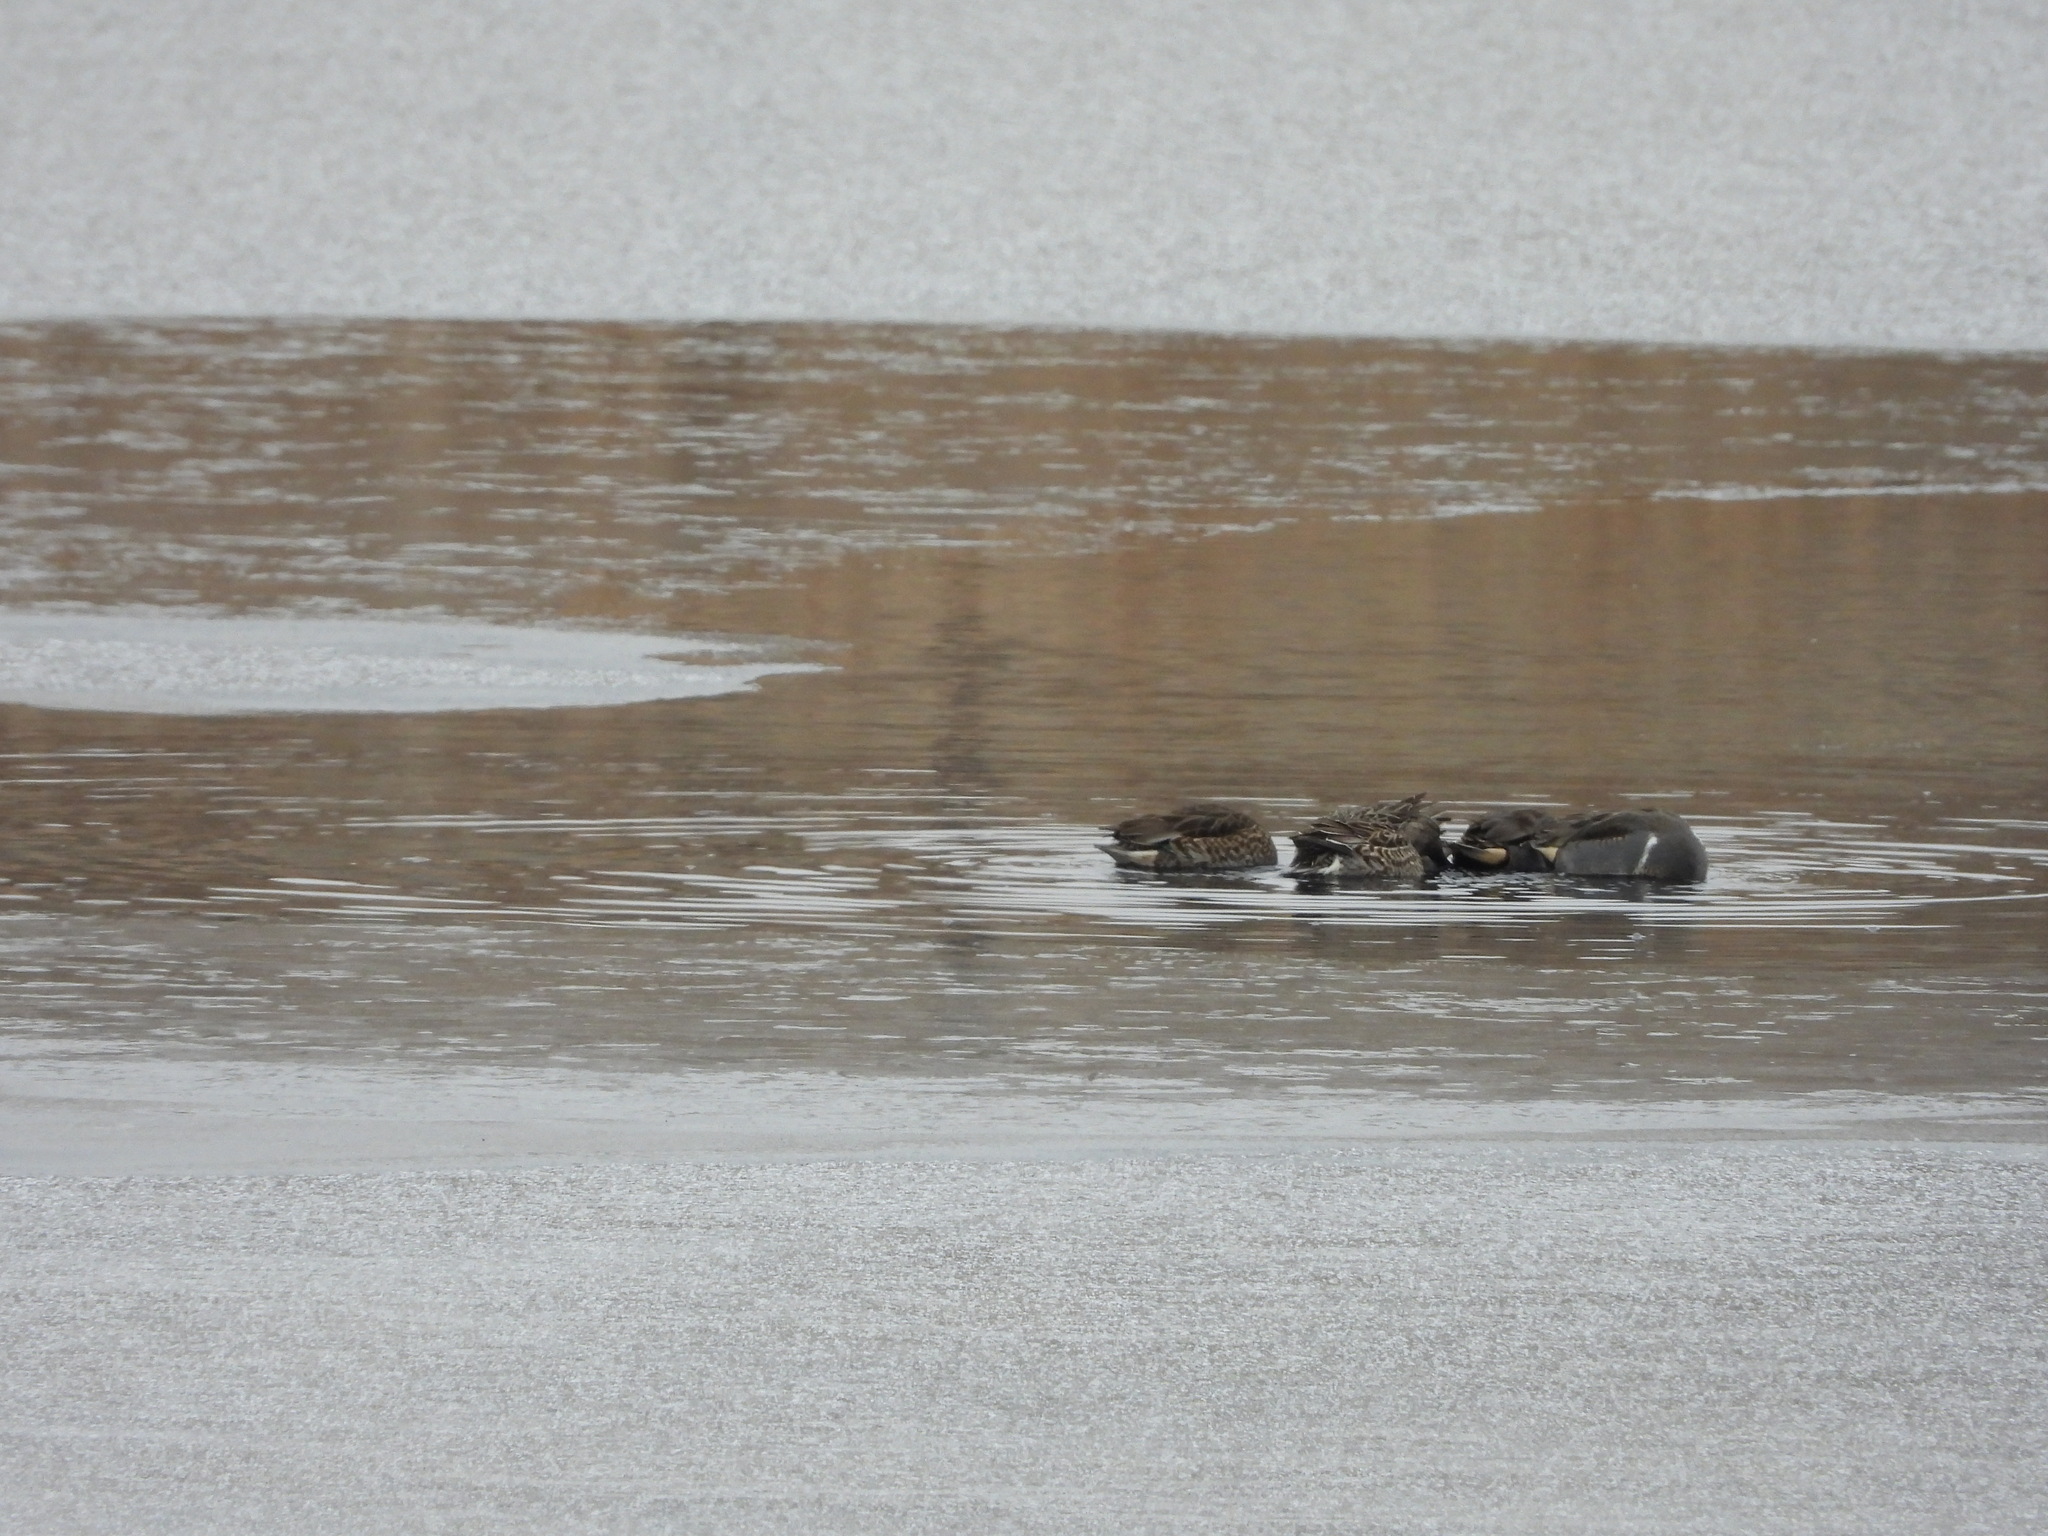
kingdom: Animalia
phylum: Chordata
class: Aves
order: Anseriformes
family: Anatidae
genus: Anas
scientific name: Anas crecca
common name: Eurasian teal
